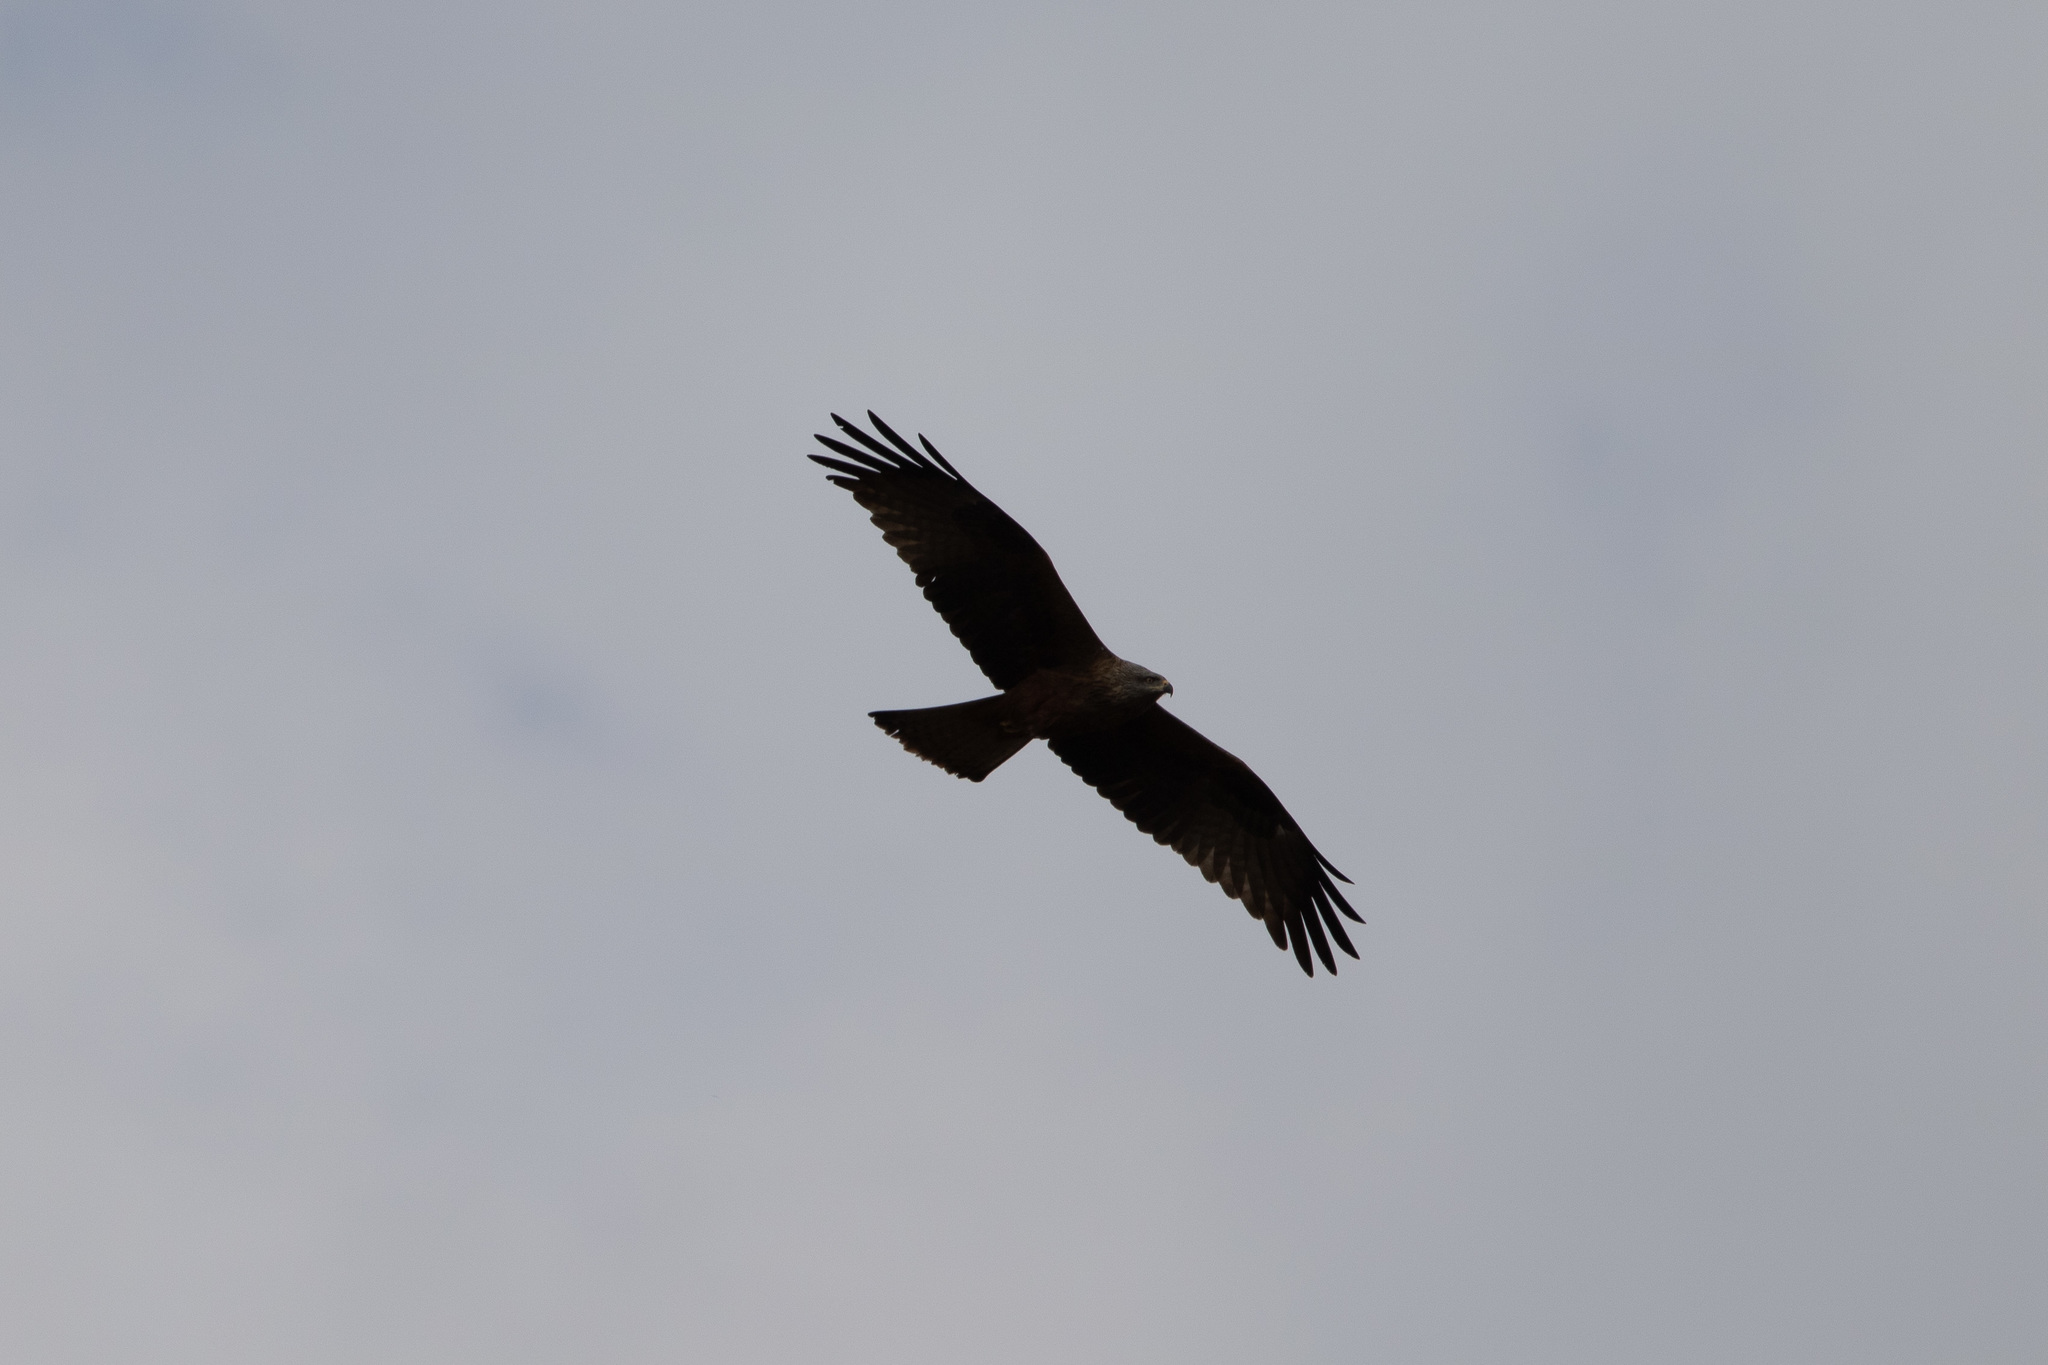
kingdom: Animalia
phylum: Chordata
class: Aves
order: Accipitriformes
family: Accipitridae
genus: Milvus
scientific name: Milvus migrans
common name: Black kite
